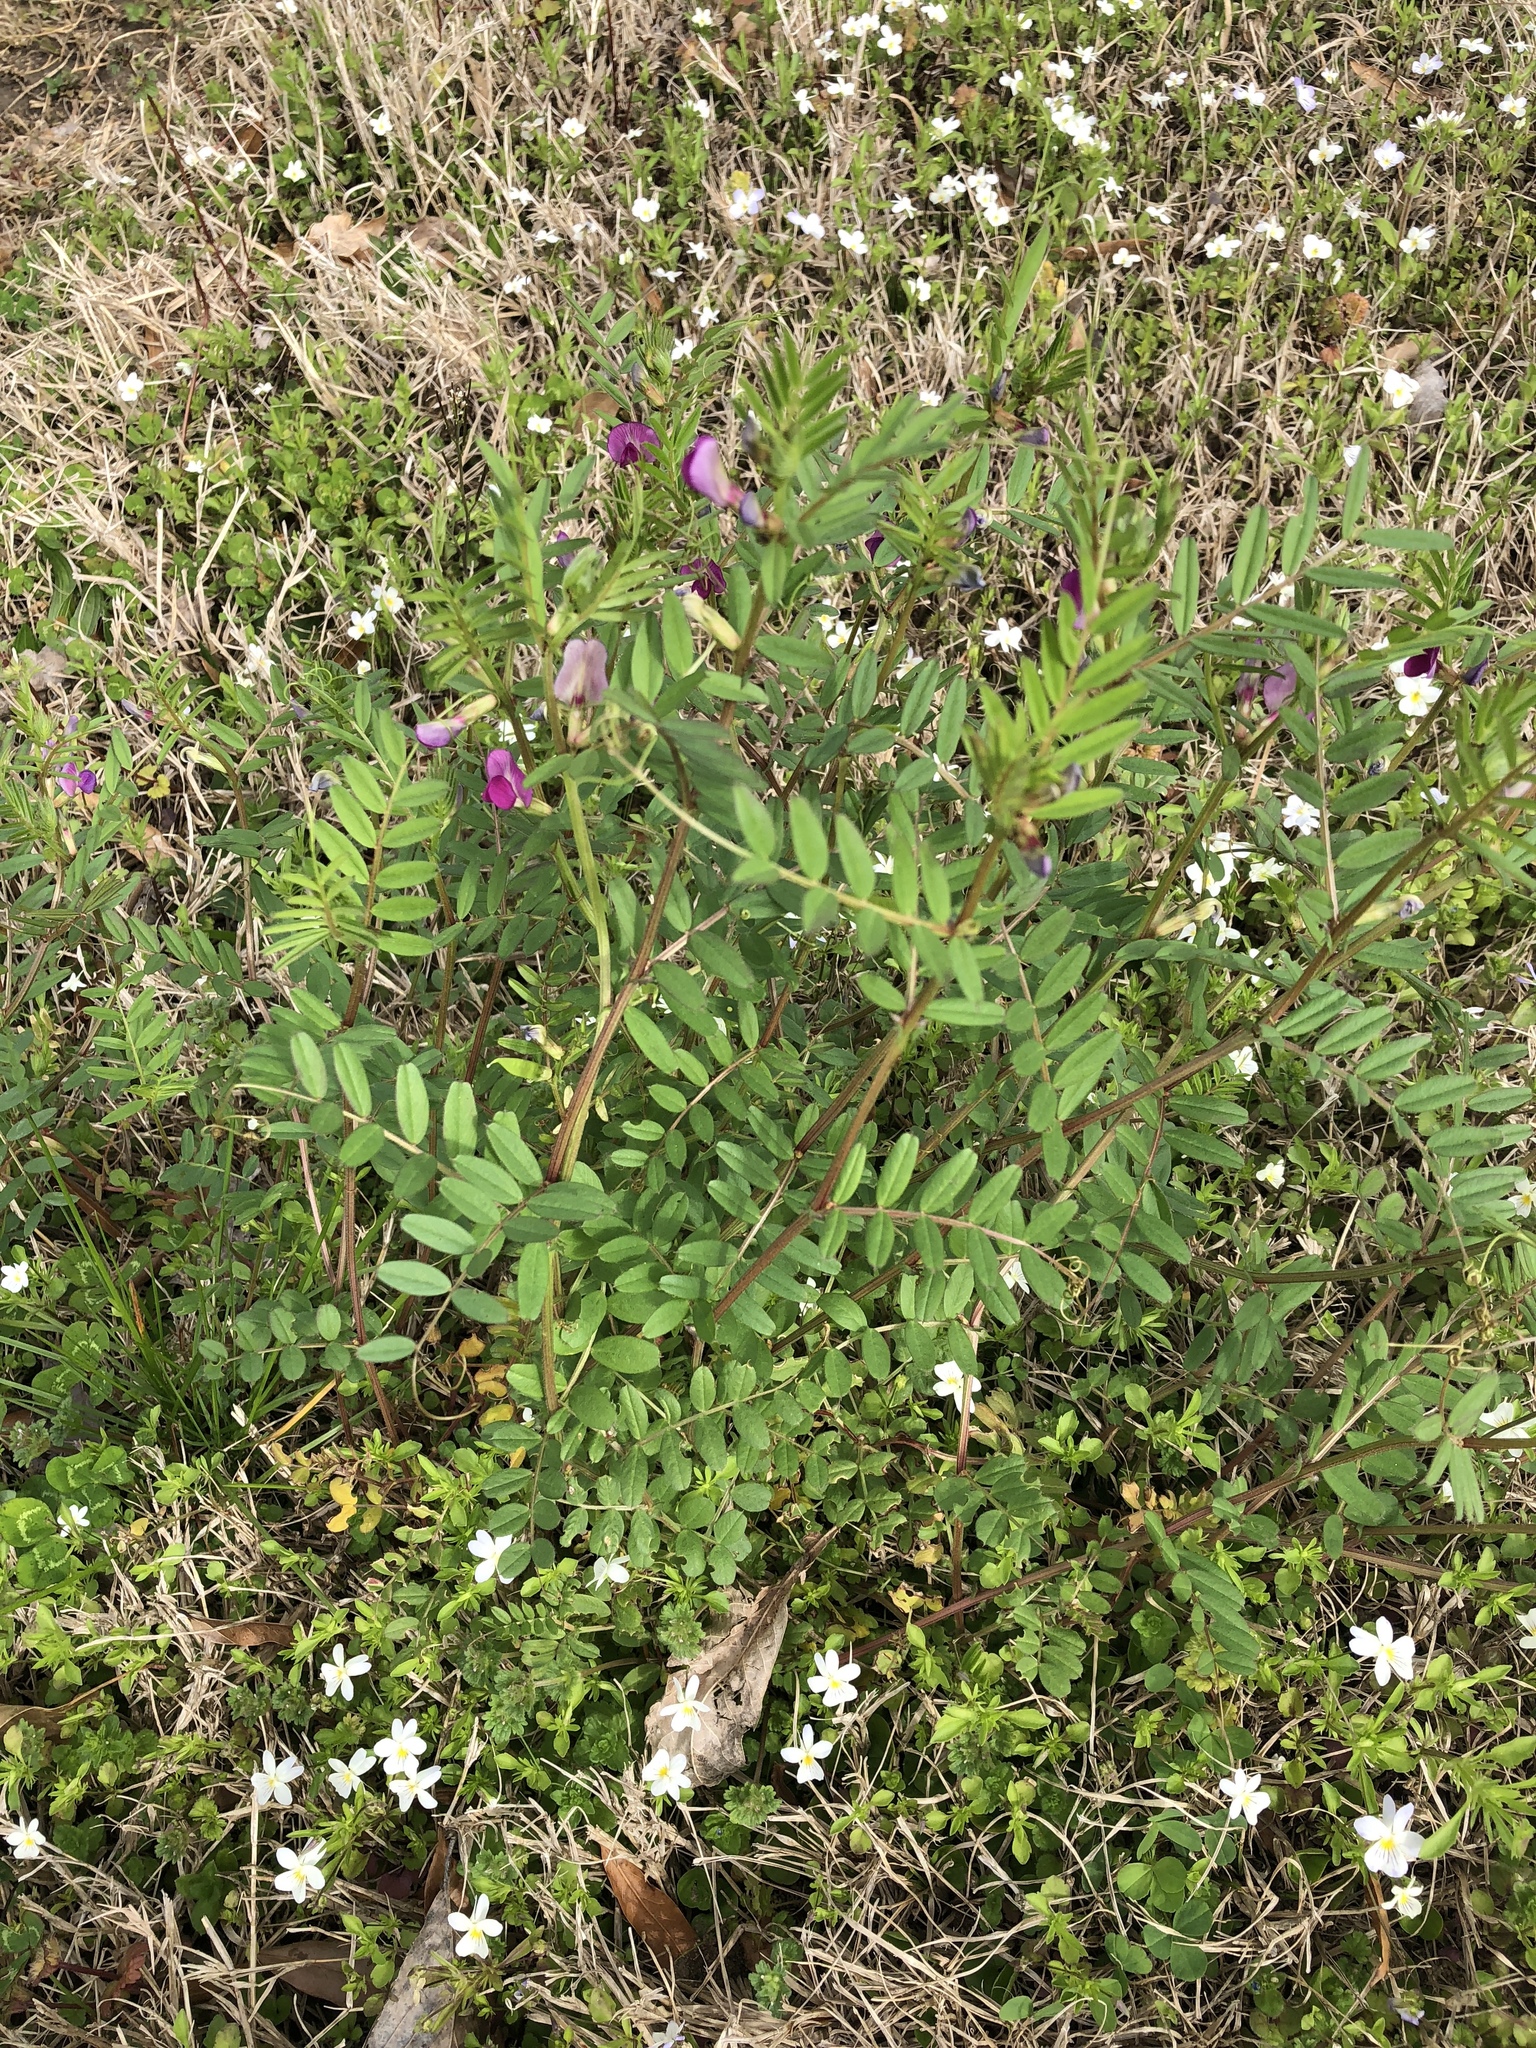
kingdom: Plantae
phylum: Tracheophyta
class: Magnoliopsida
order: Fabales
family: Fabaceae
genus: Vicia
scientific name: Vicia sativa
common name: Garden vetch
